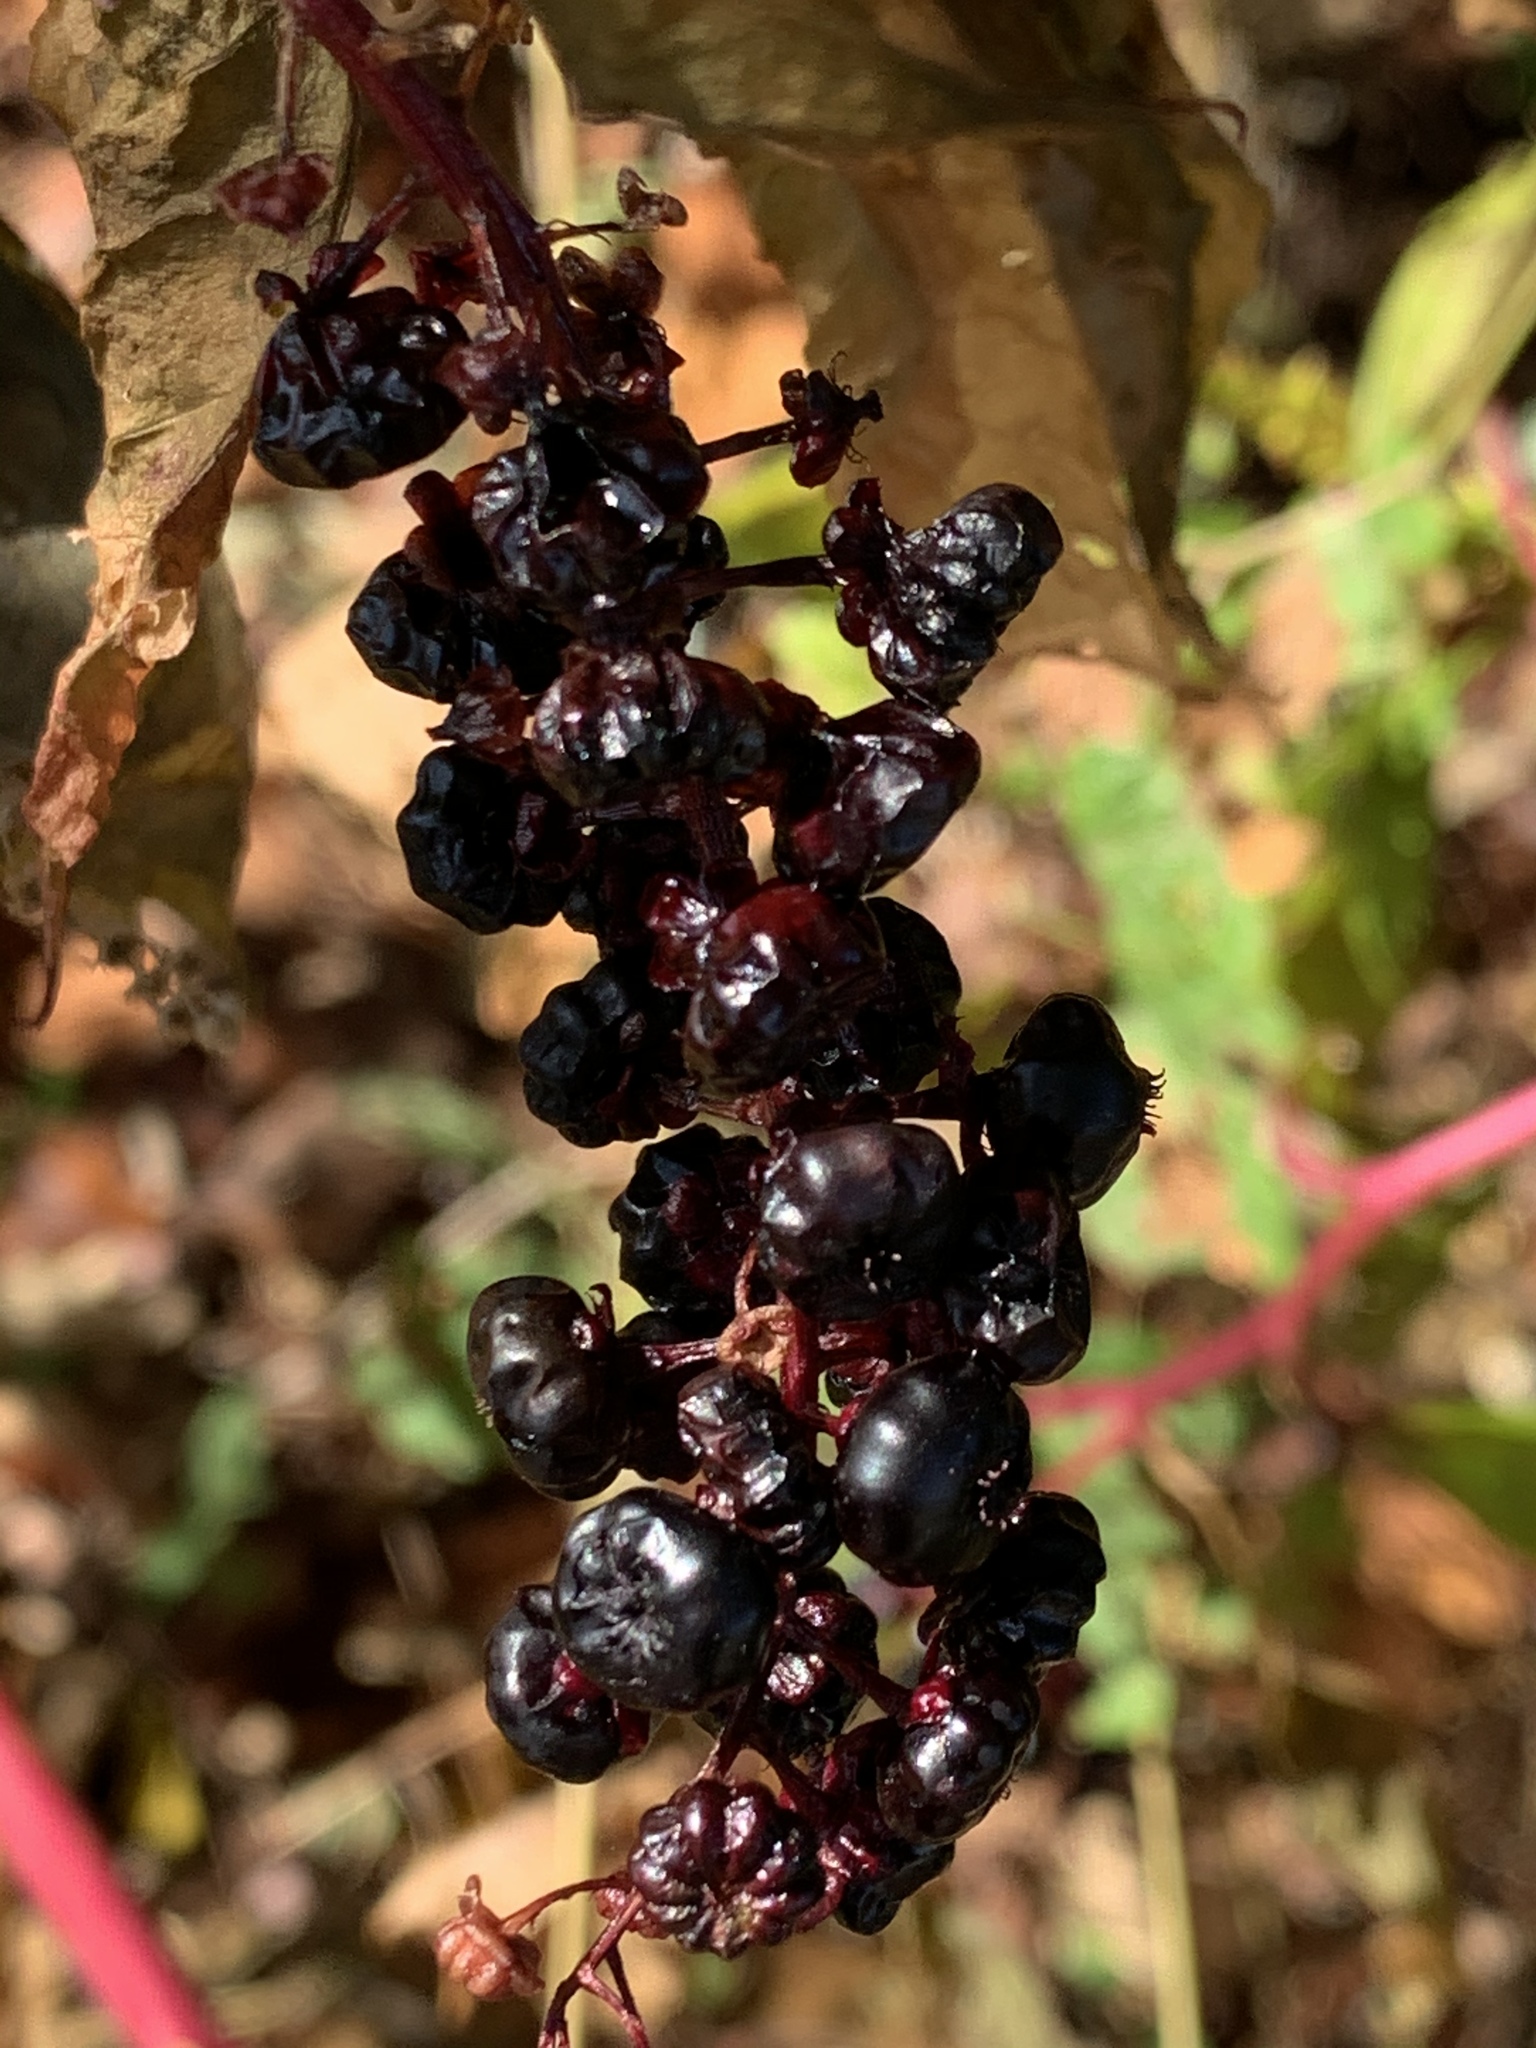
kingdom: Plantae
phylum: Tracheophyta
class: Magnoliopsida
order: Caryophyllales
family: Phytolaccaceae
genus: Phytolacca
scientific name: Phytolacca americana
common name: American pokeweed
